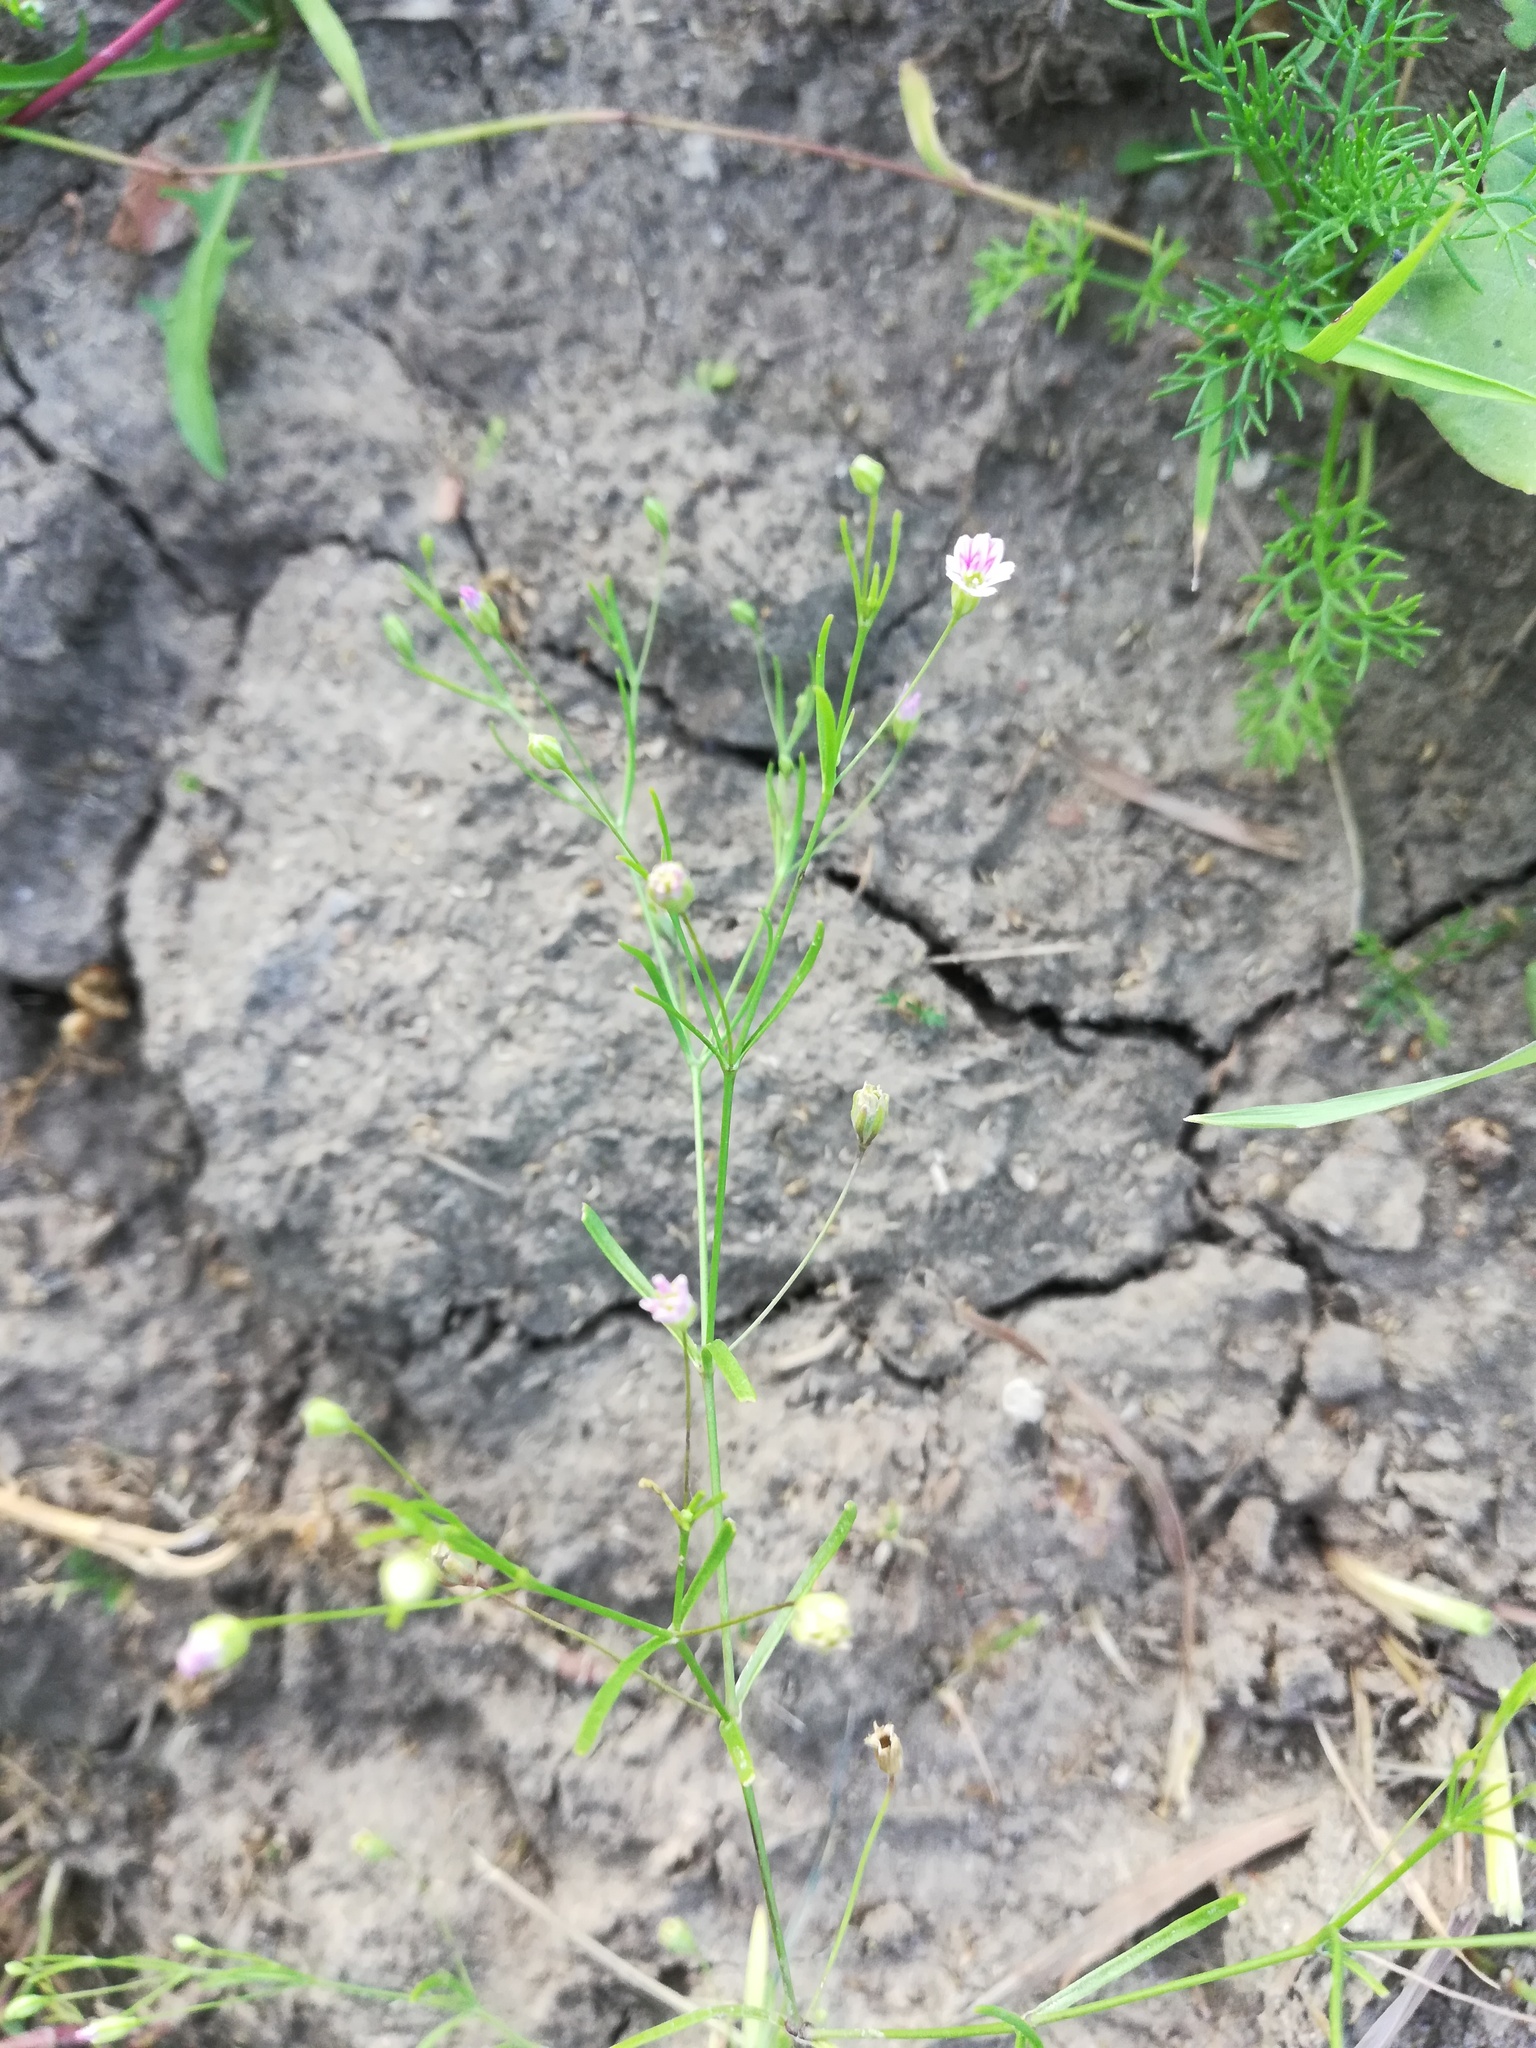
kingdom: Plantae
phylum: Tracheophyta
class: Magnoliopsida
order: Caryophyllales
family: Caryophyllaceae
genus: Psammophiliella
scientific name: Psammophiliella muralis
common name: Cushion baby's-breath
